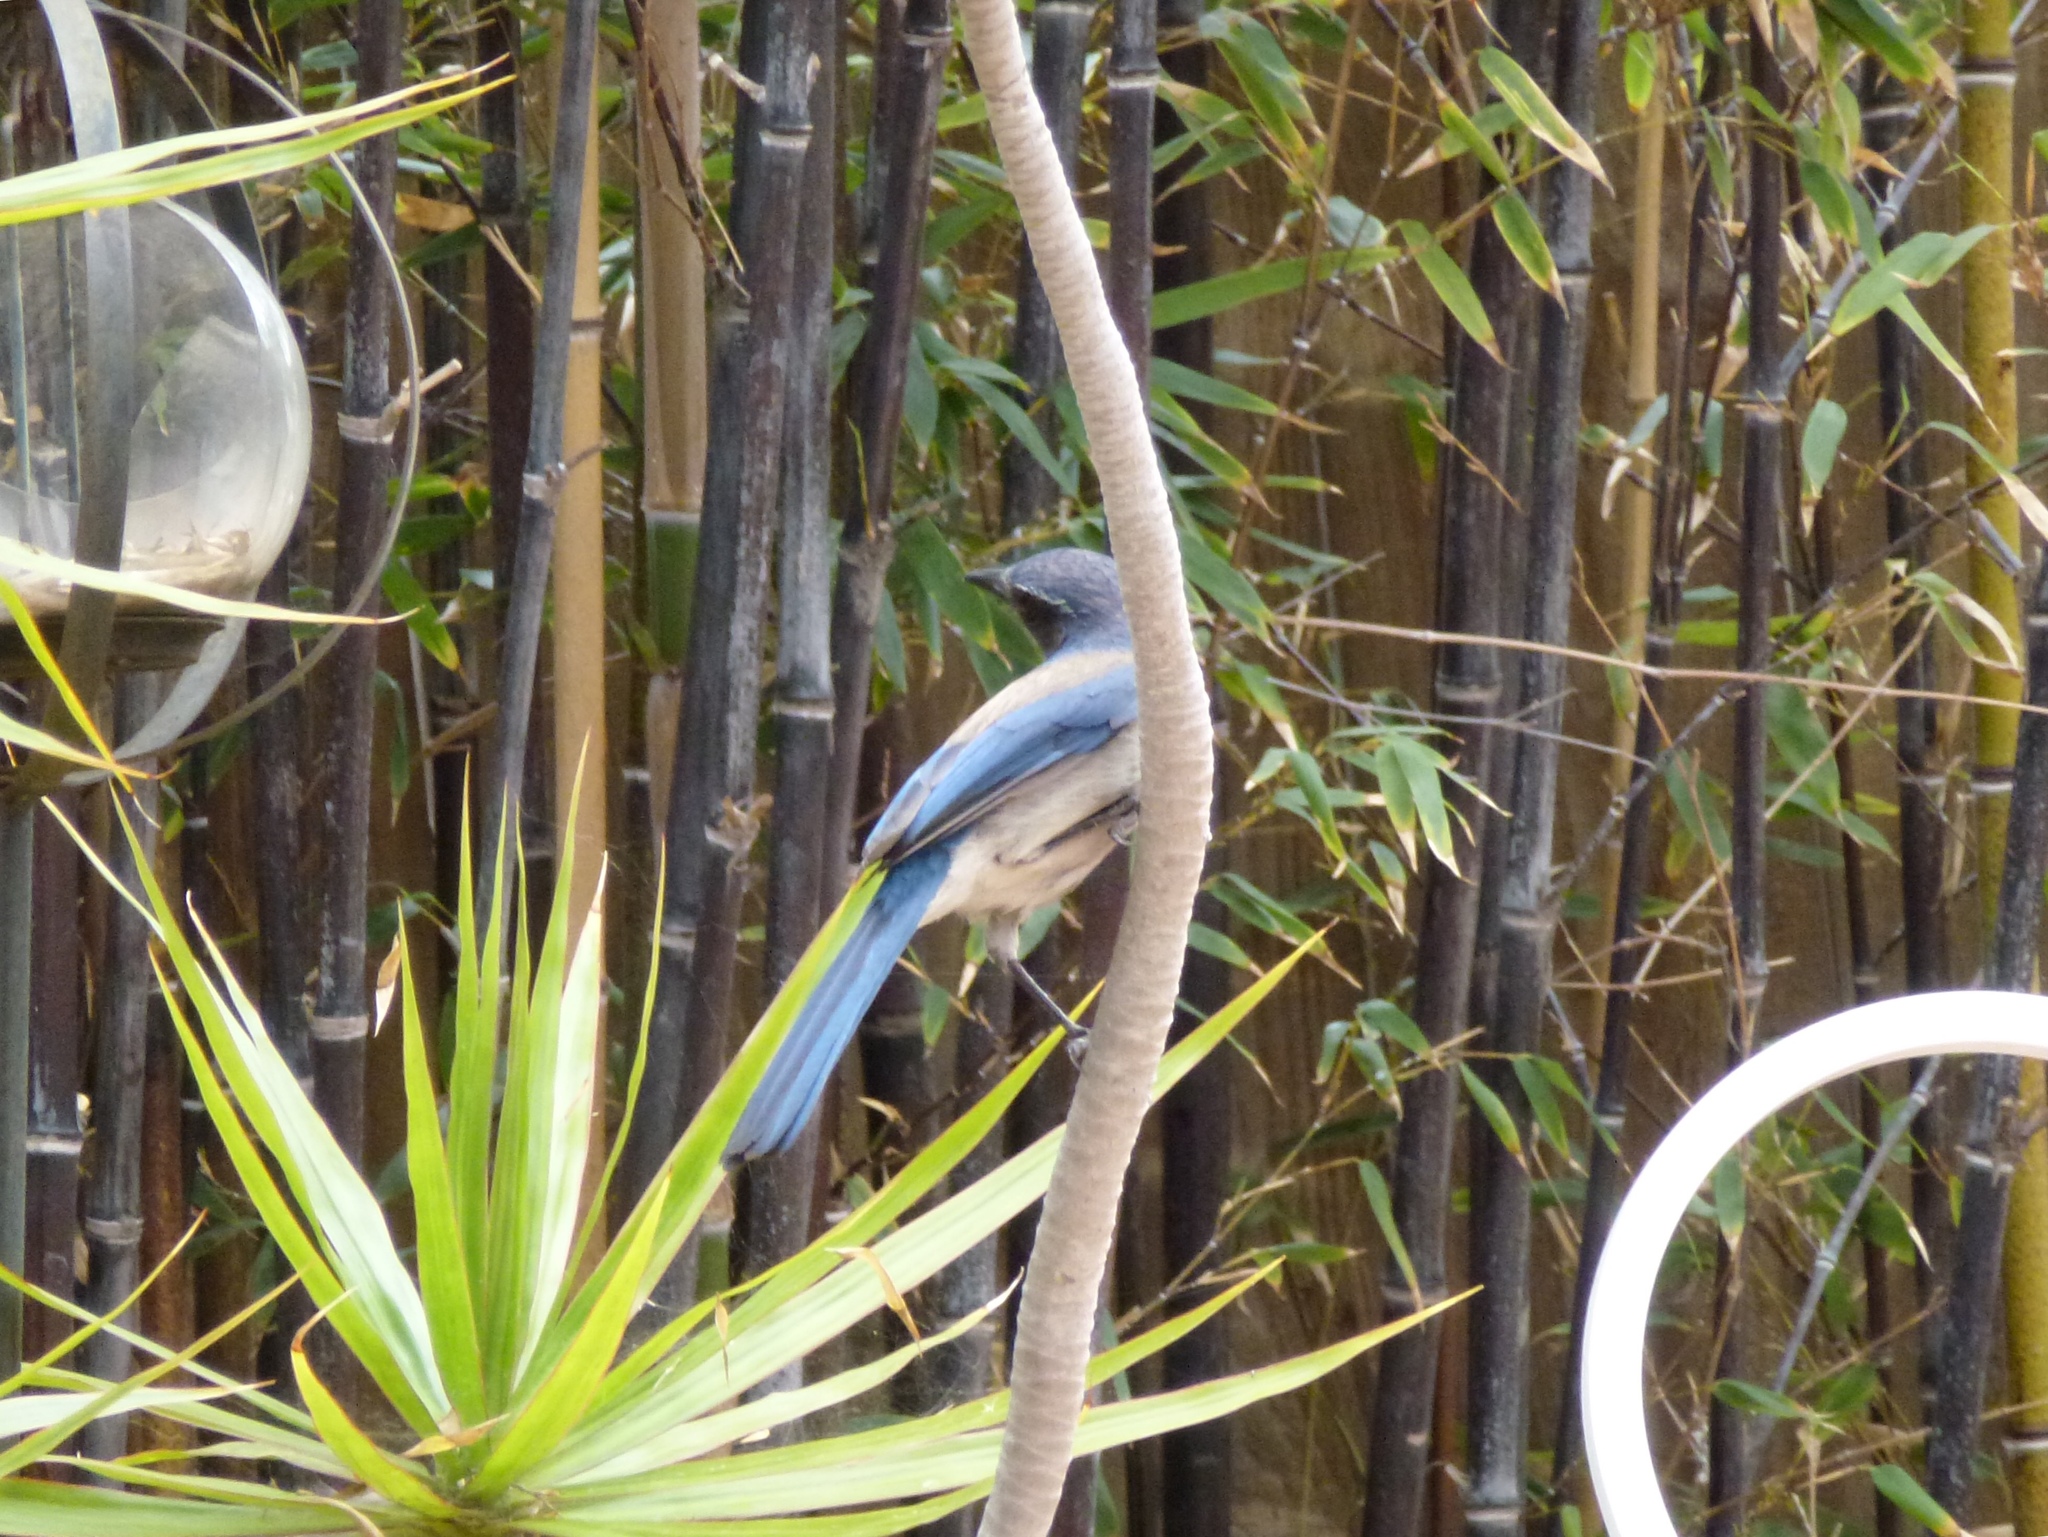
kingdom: Animalia
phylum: Chordata
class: Aves
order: Passeriformes
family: Corvidae
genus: Aphelocoma
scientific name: Aphelocoma californica
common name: California scrub-jay
